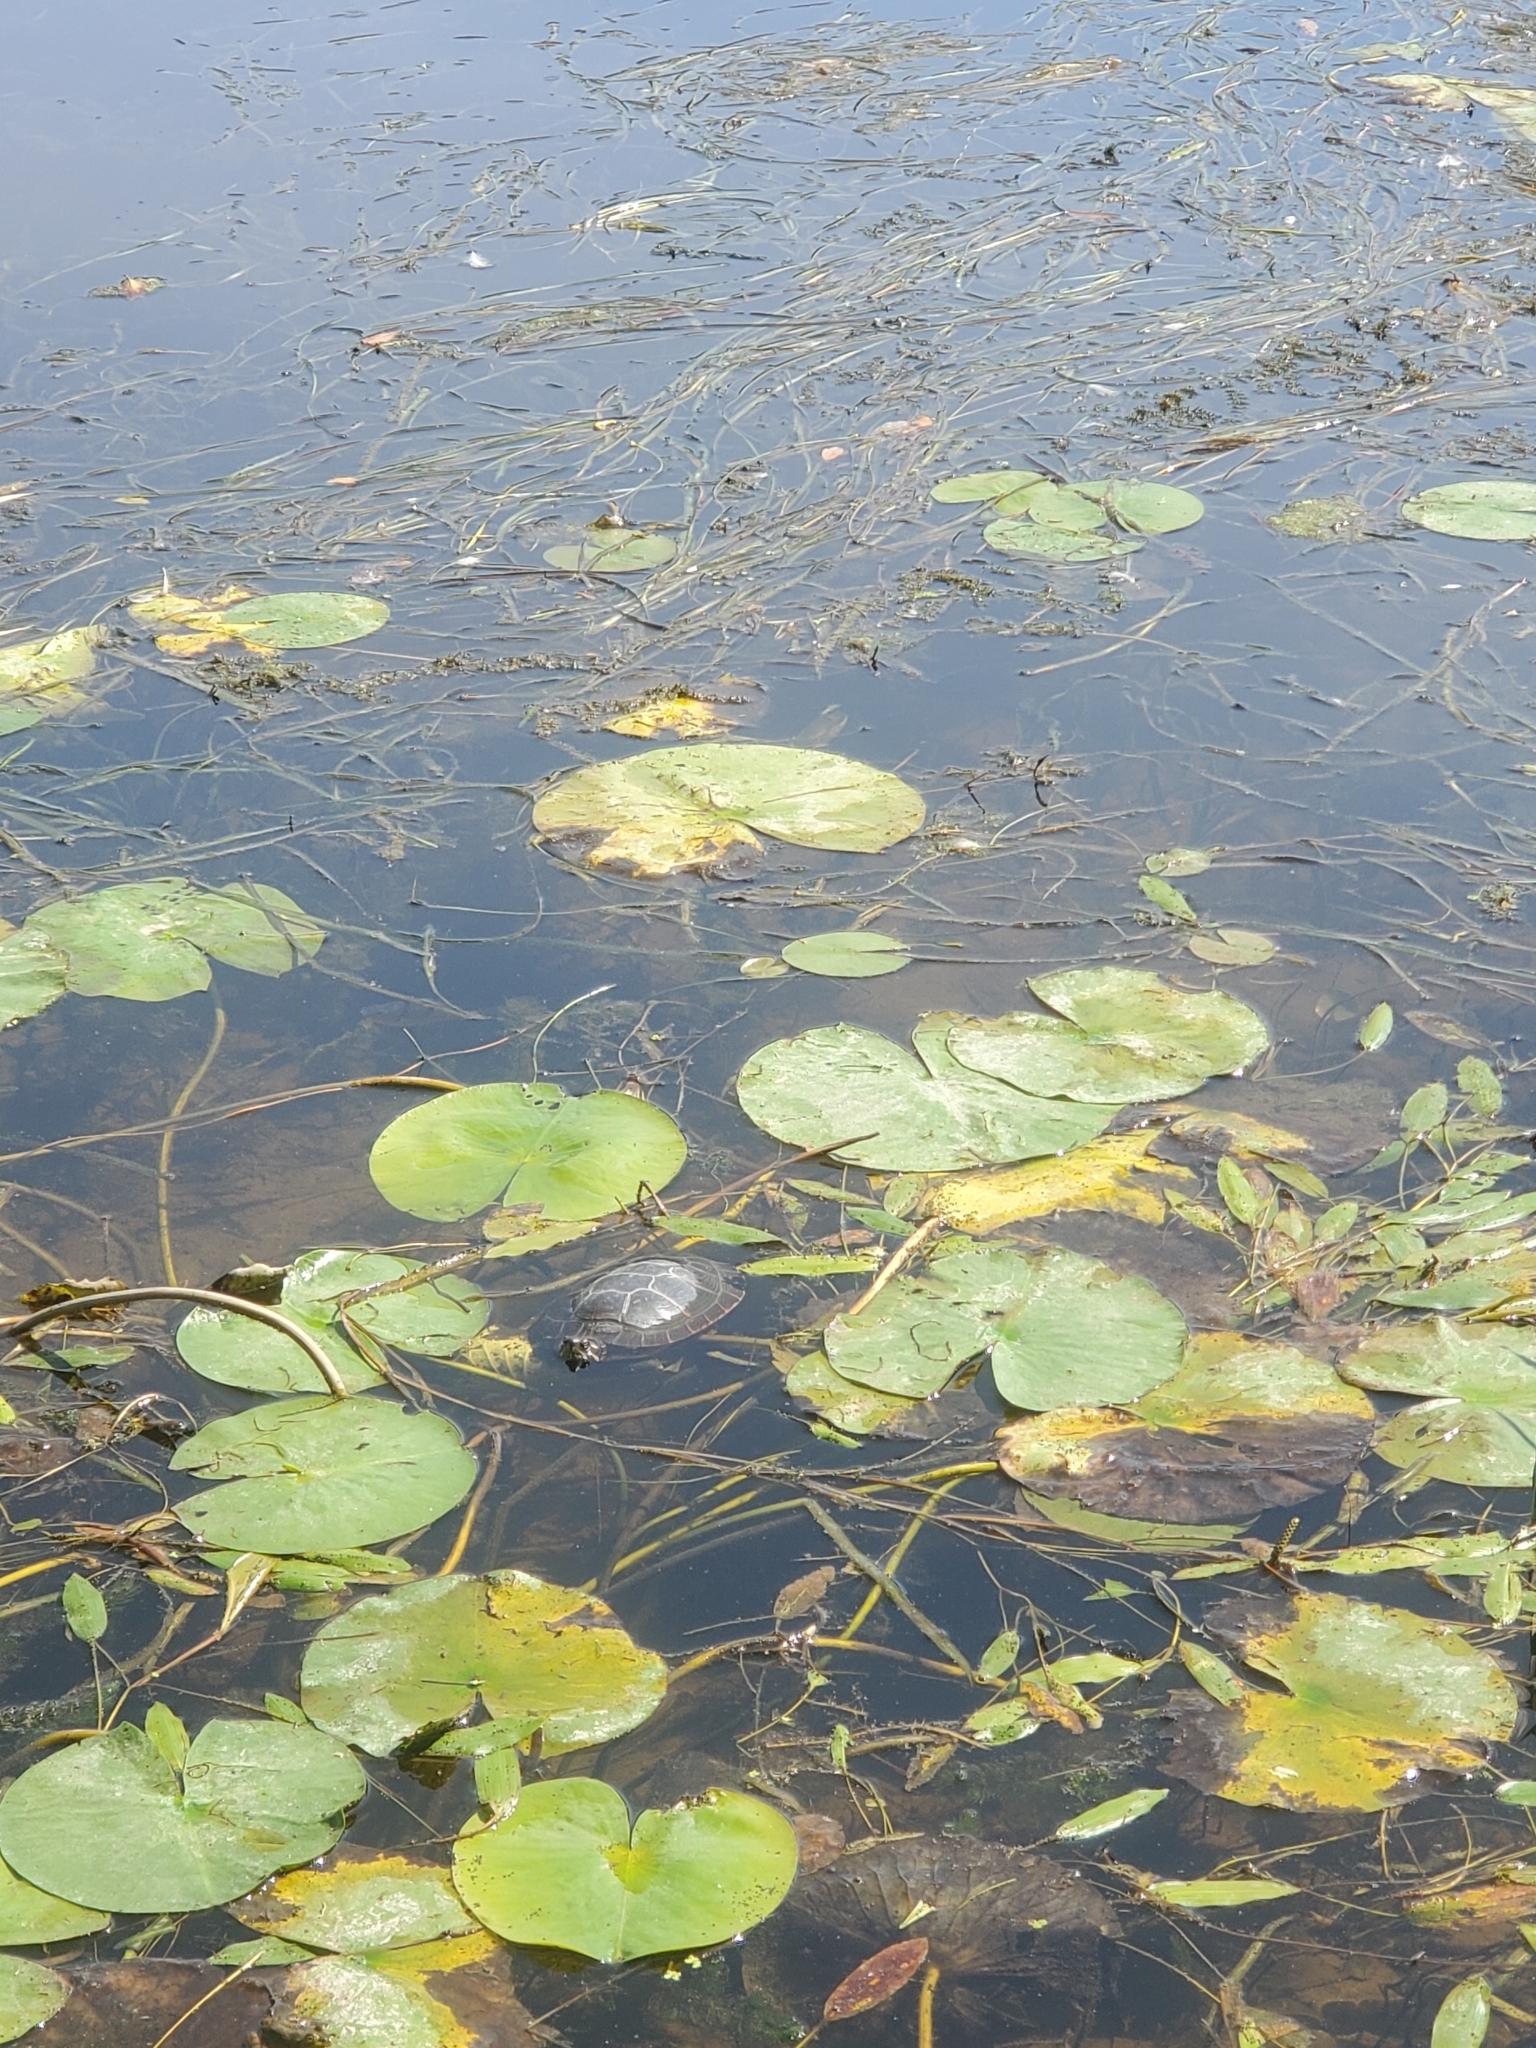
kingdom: Animalia
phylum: Chordata
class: Testudines
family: Emydidae
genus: Chrysemys
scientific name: Chrysemys picta
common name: Painted turtle
